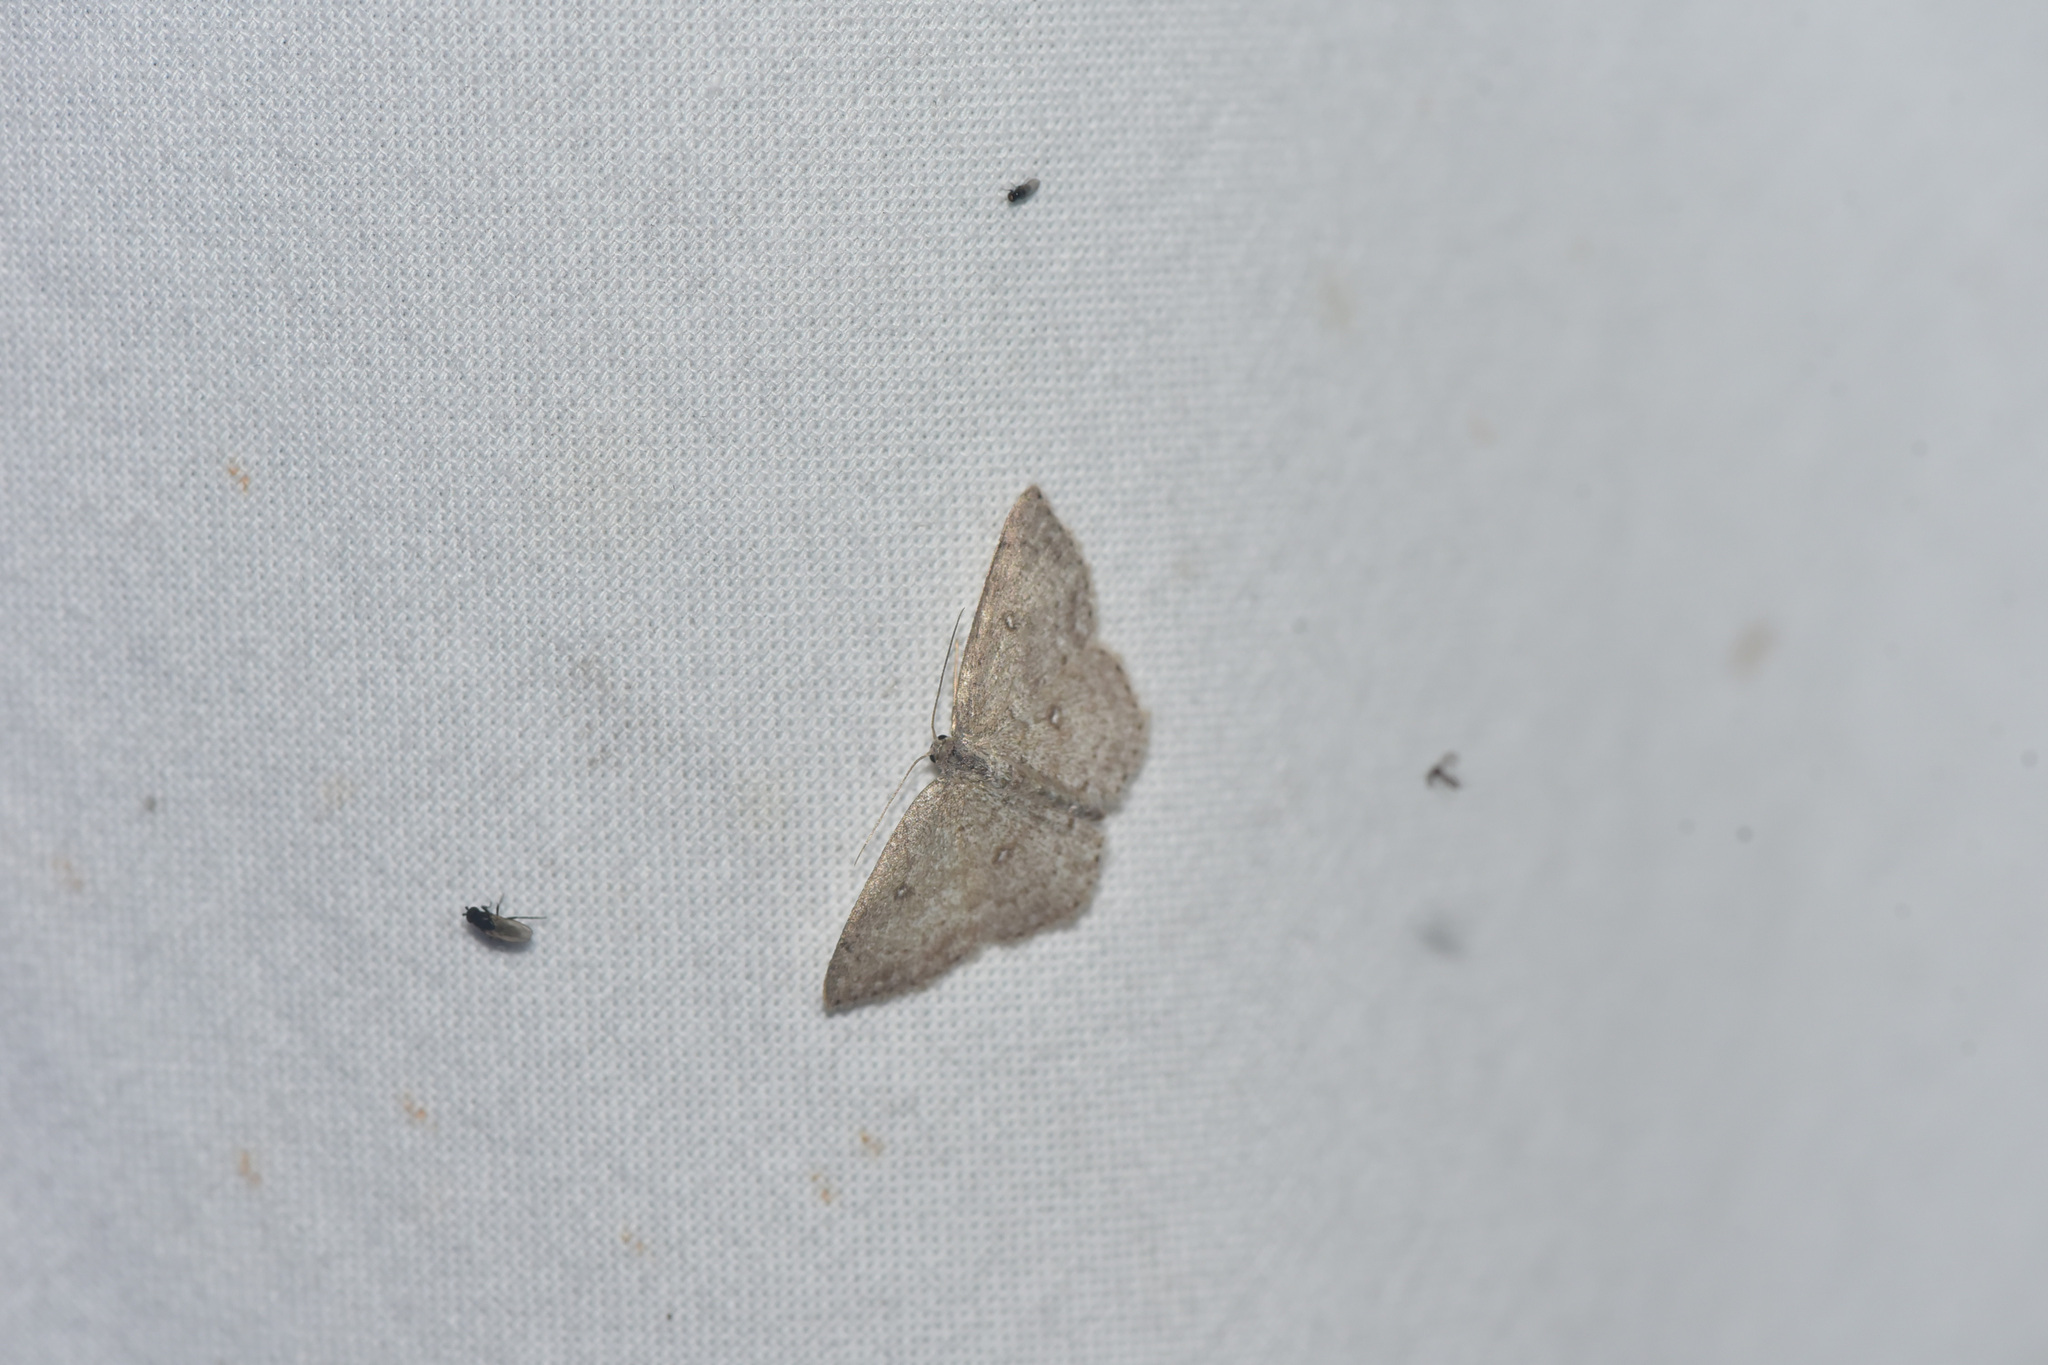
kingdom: Animalia
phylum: Arthropoda
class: Insecta
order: Lepidoptera
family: Geometridae
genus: Cyclophora
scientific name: Cyclophora pendulinaria
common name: Sweet fern geometer
